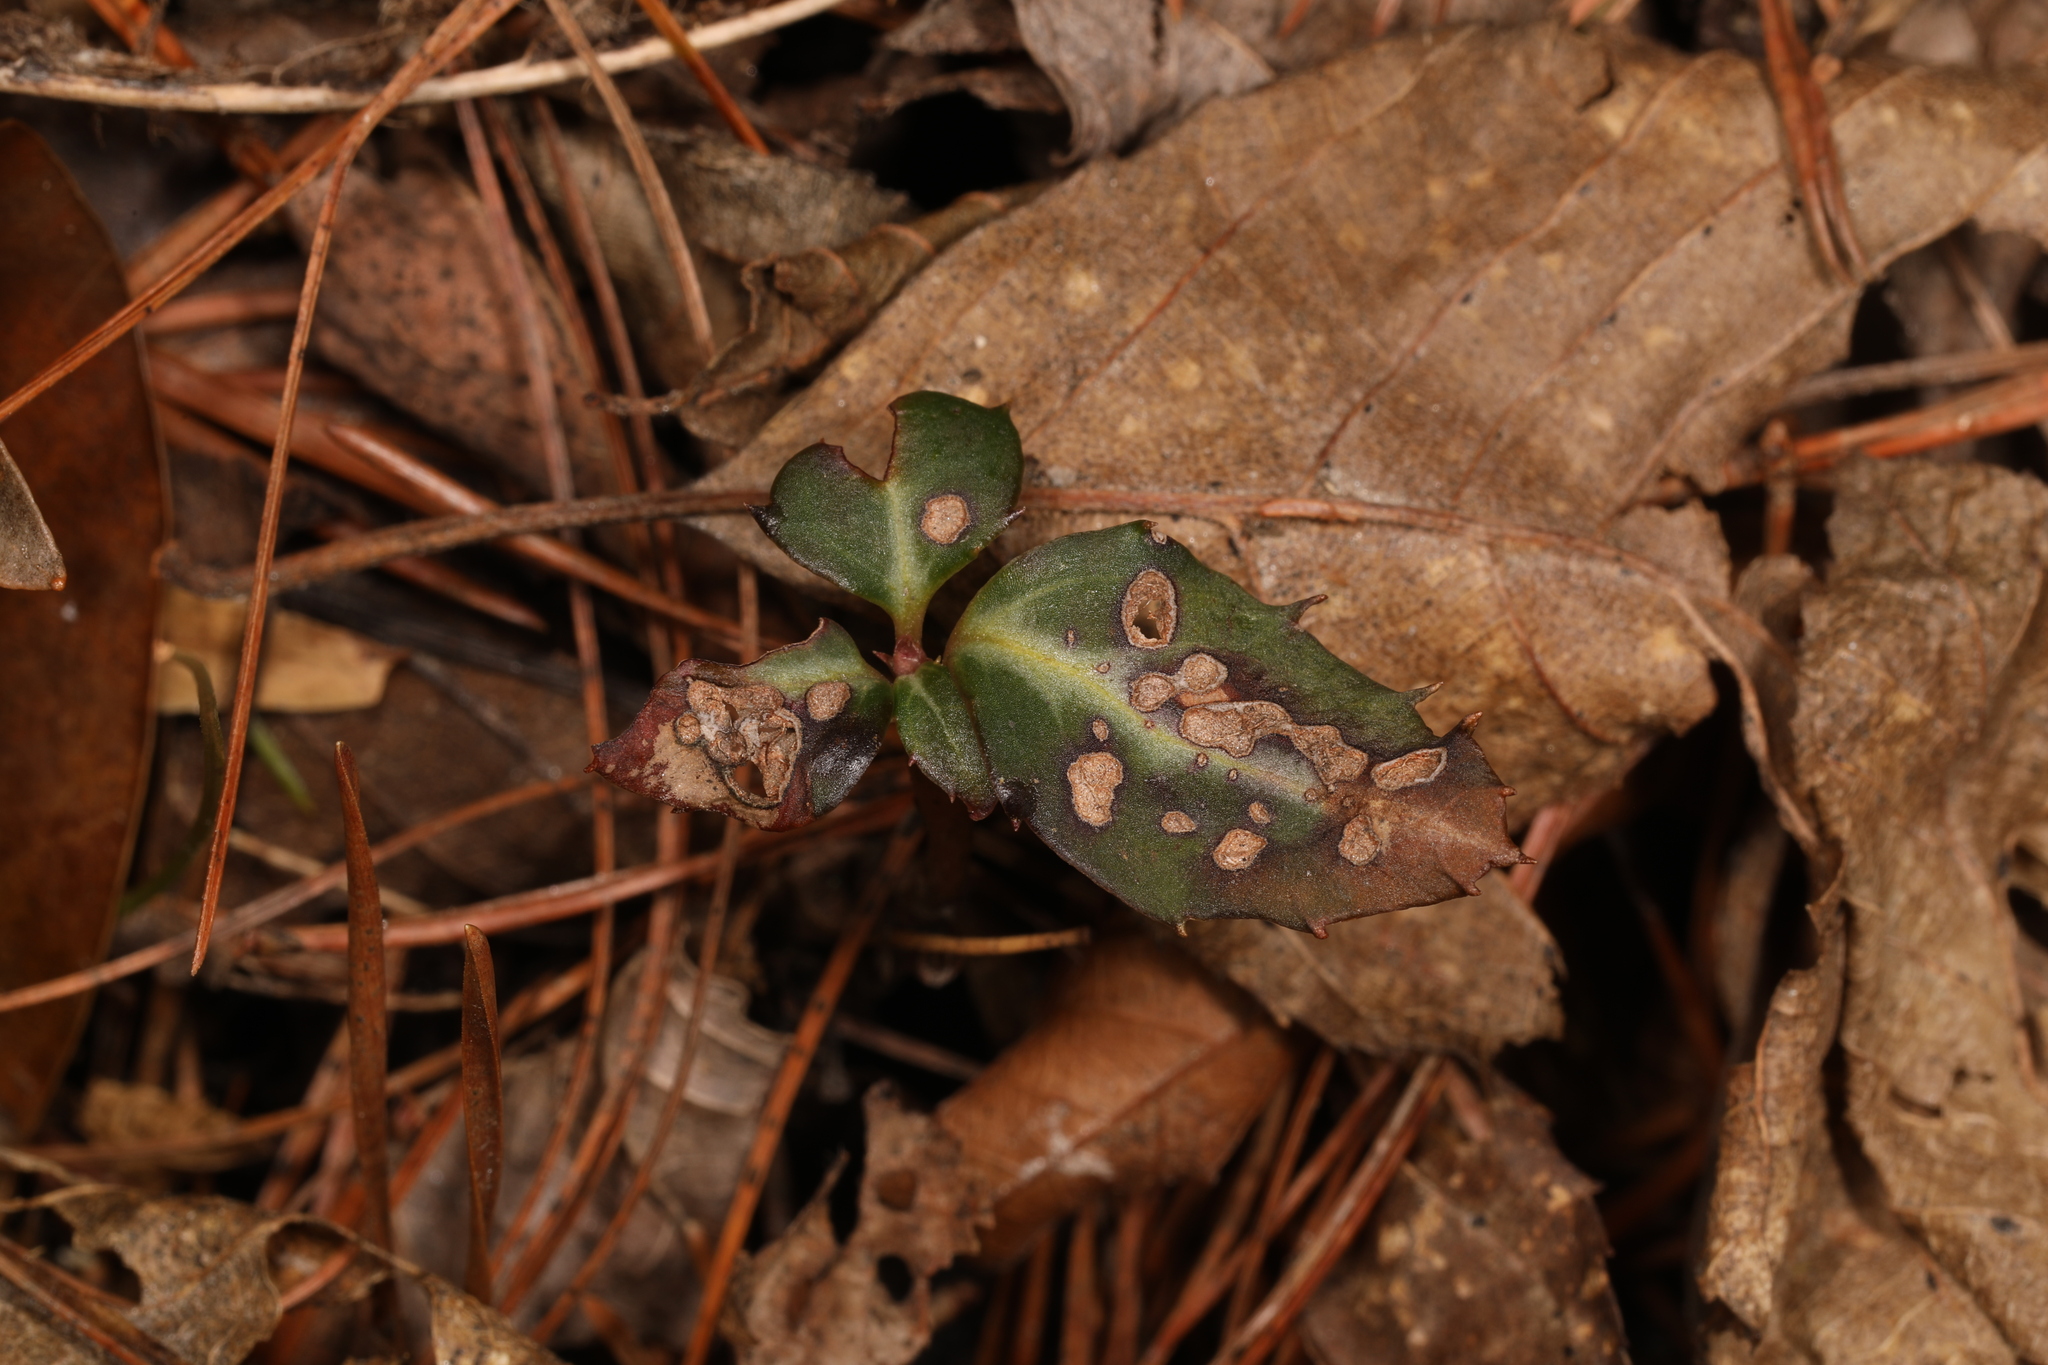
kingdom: Plantae
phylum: Tracheophyta
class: Magnoliopsida
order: Ericales
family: Ericaceae
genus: Chimaphila
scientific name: Chimaphila maculata
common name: Spotted pipsissewa
